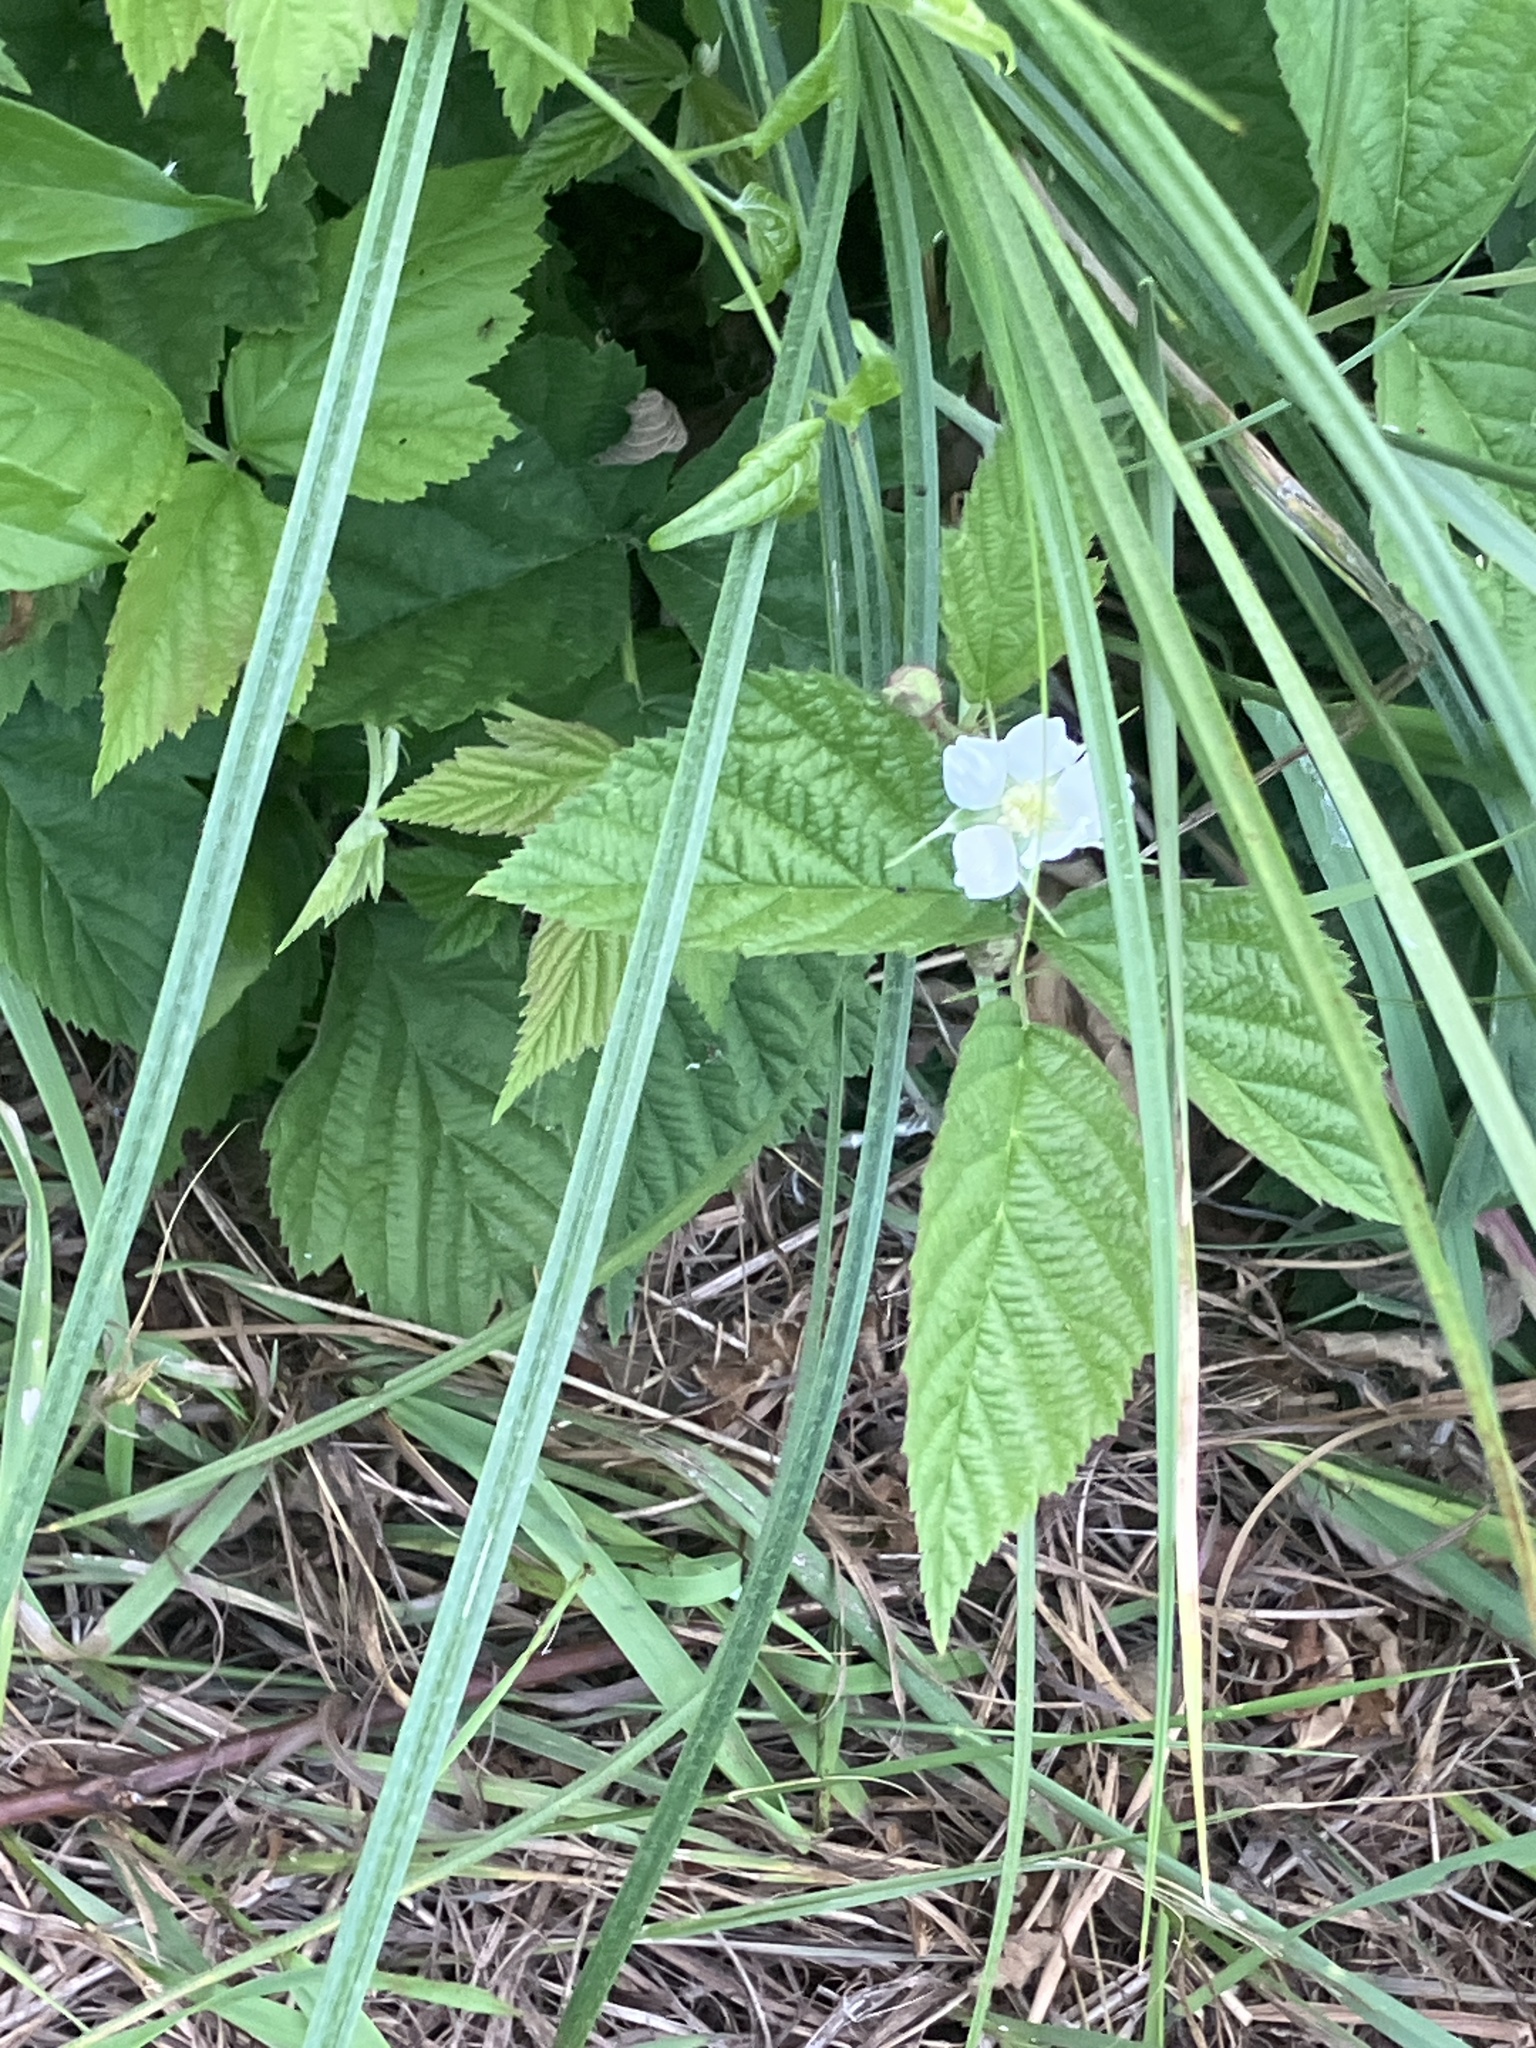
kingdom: Plantae
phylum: Tracheophyta
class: Magnoliopsida
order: Rosales
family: Rosaceae
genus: Rubus
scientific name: Rubus caesius
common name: Dewberry
